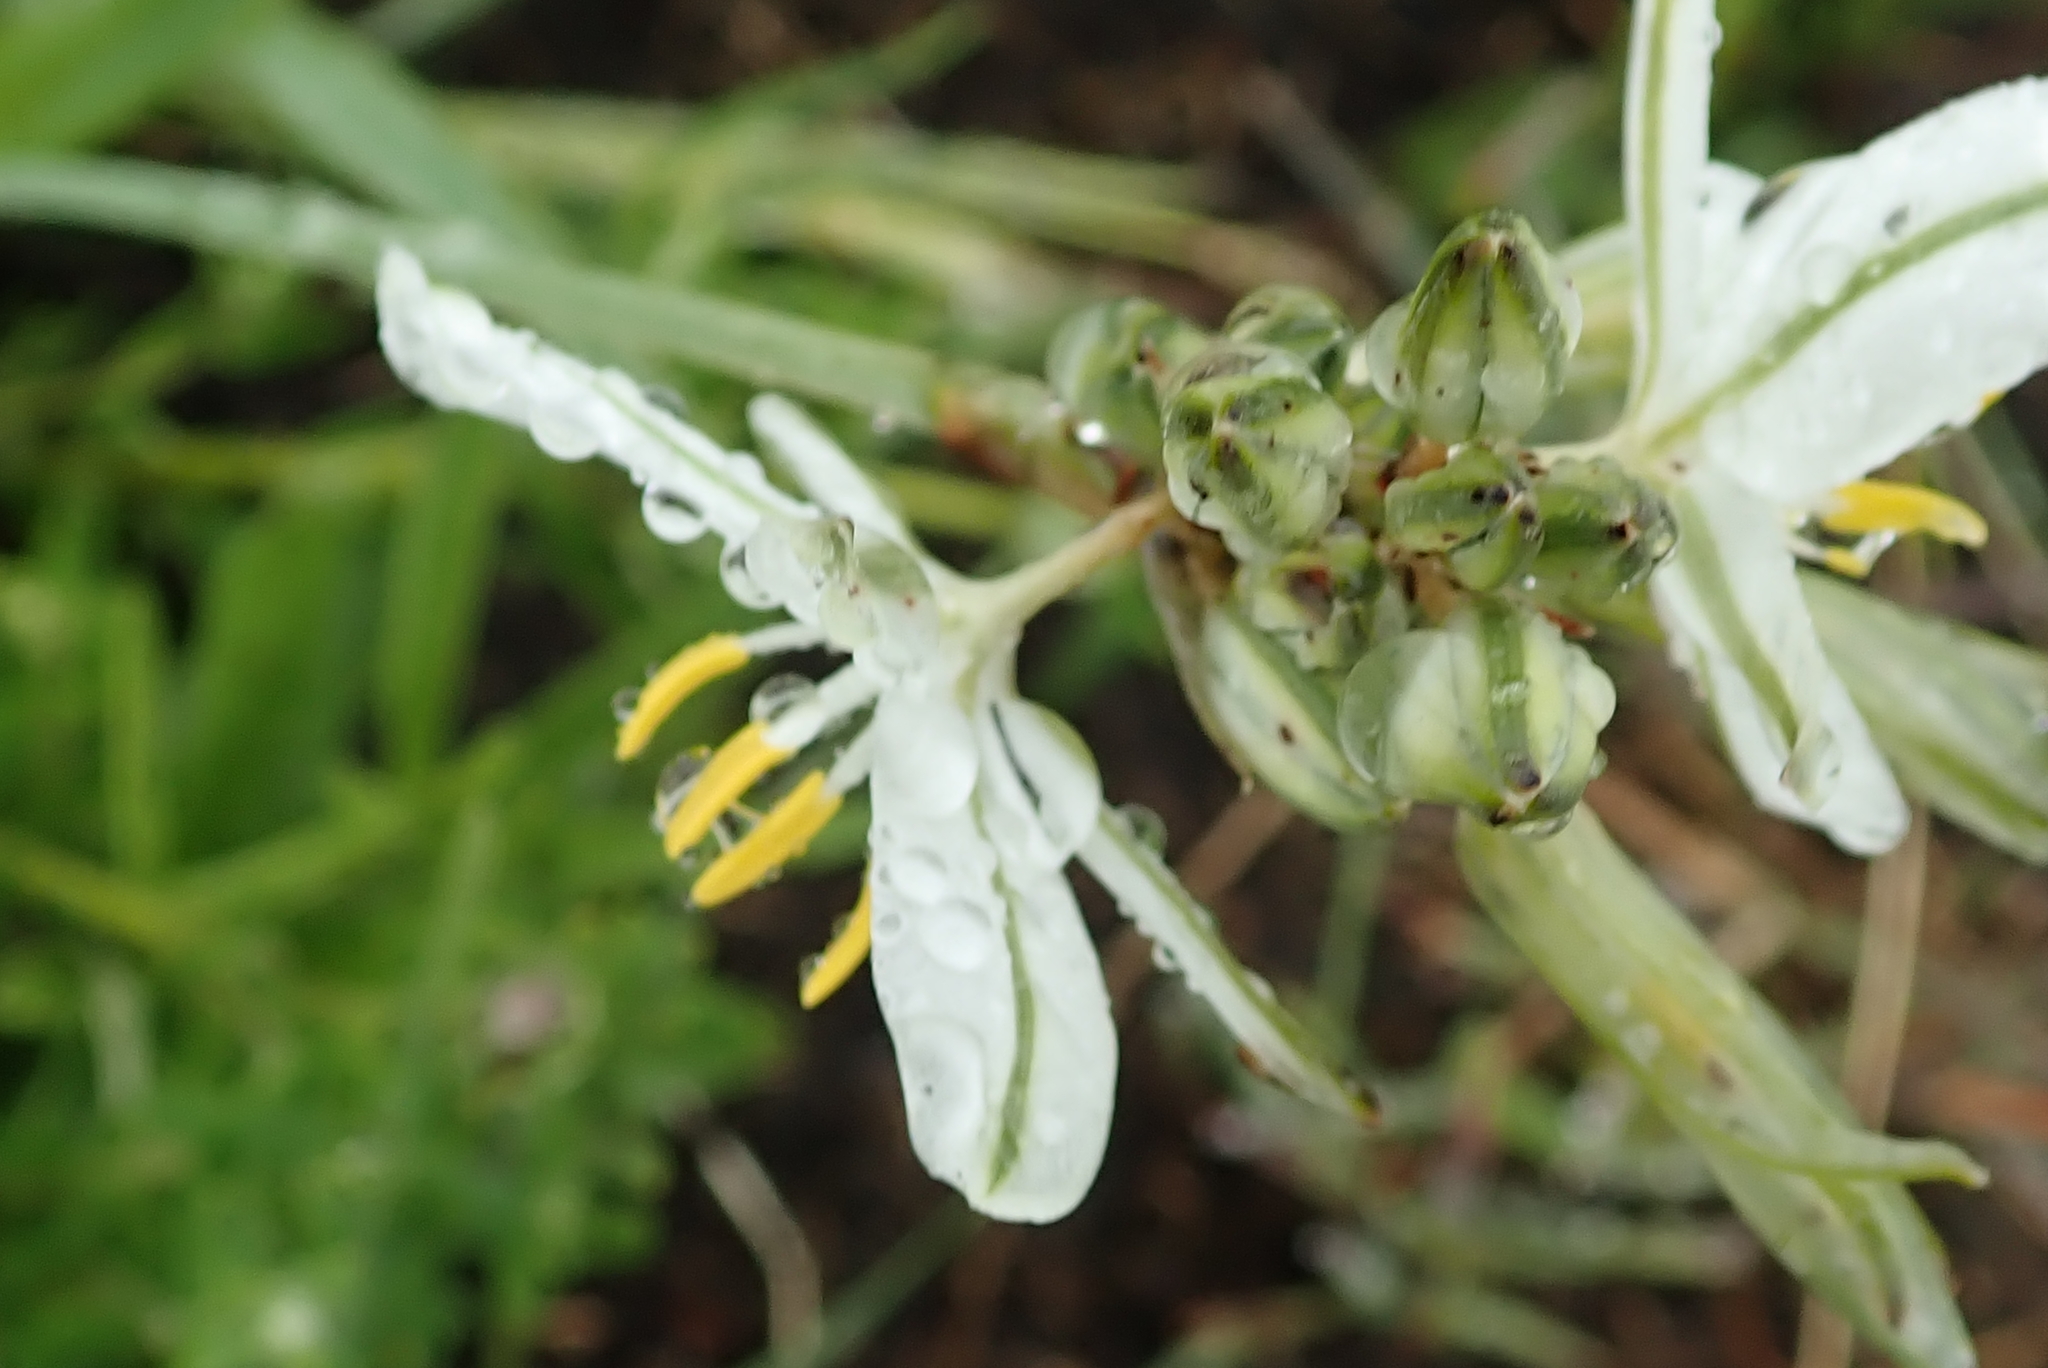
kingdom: Plantae
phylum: Tracheophyta
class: Liliopsida
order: Asparagales
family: Asparagaceae
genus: Chlorophytum
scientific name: Chlorophytum cooperi
